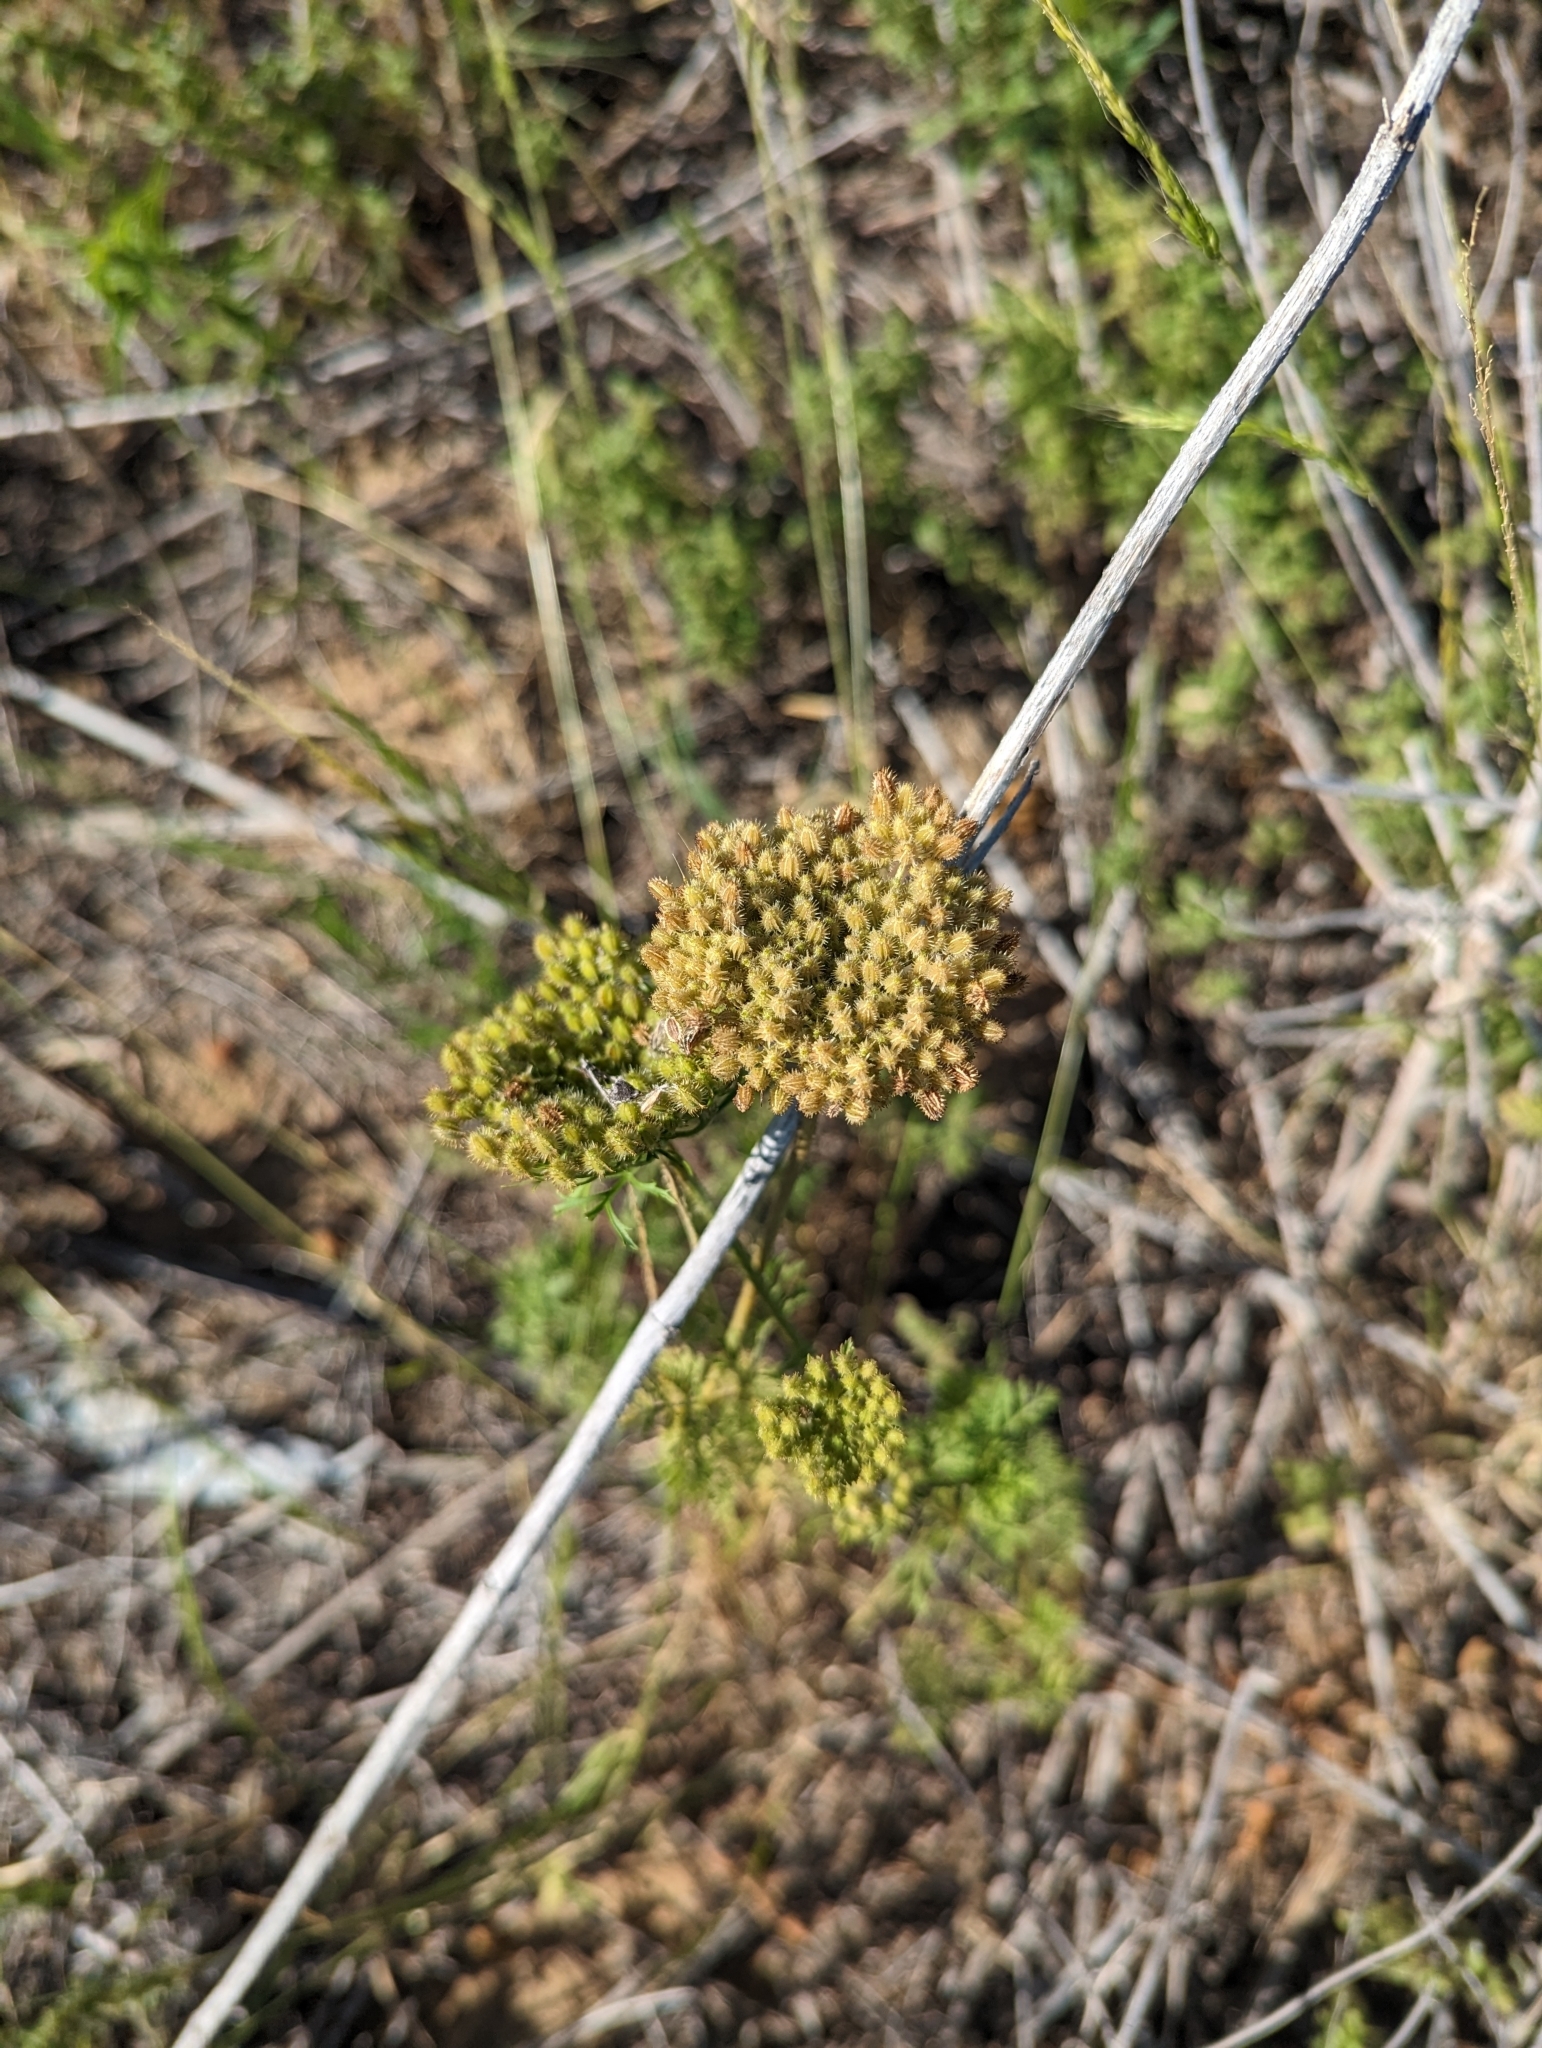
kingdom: Plantae
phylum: Tracheophyta
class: Magnoliopsida
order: Apiales
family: Apiaceae
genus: Daucus
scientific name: Daucus pusillus
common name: Southwest wild carrot
